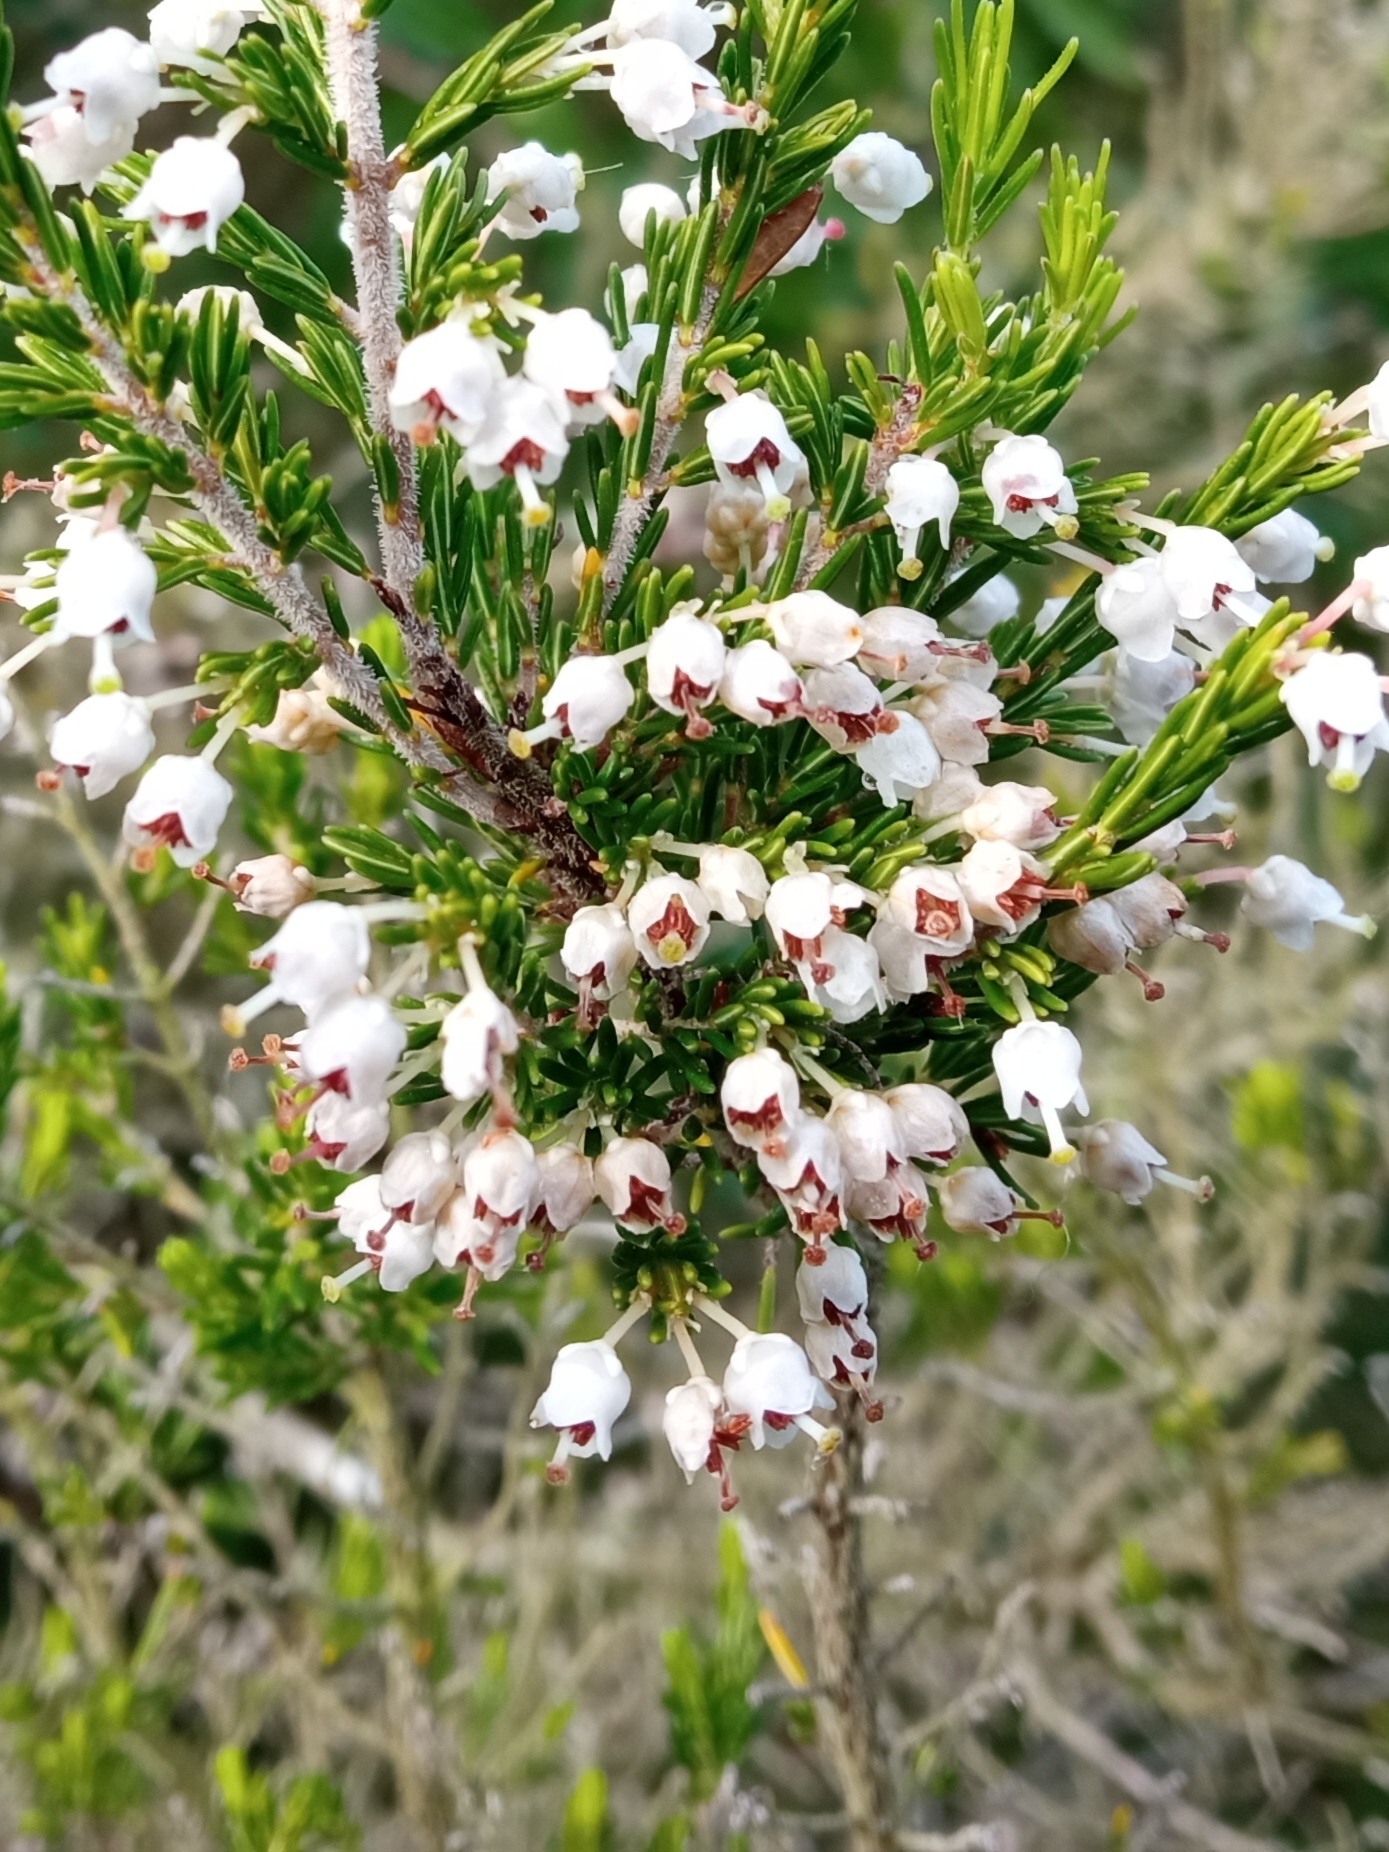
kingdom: Plantae
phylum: Tracheophyta
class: Magnoliopsida
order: Ericales
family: Ericaceae
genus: Erica
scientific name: Erica arborea
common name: Tree heath
